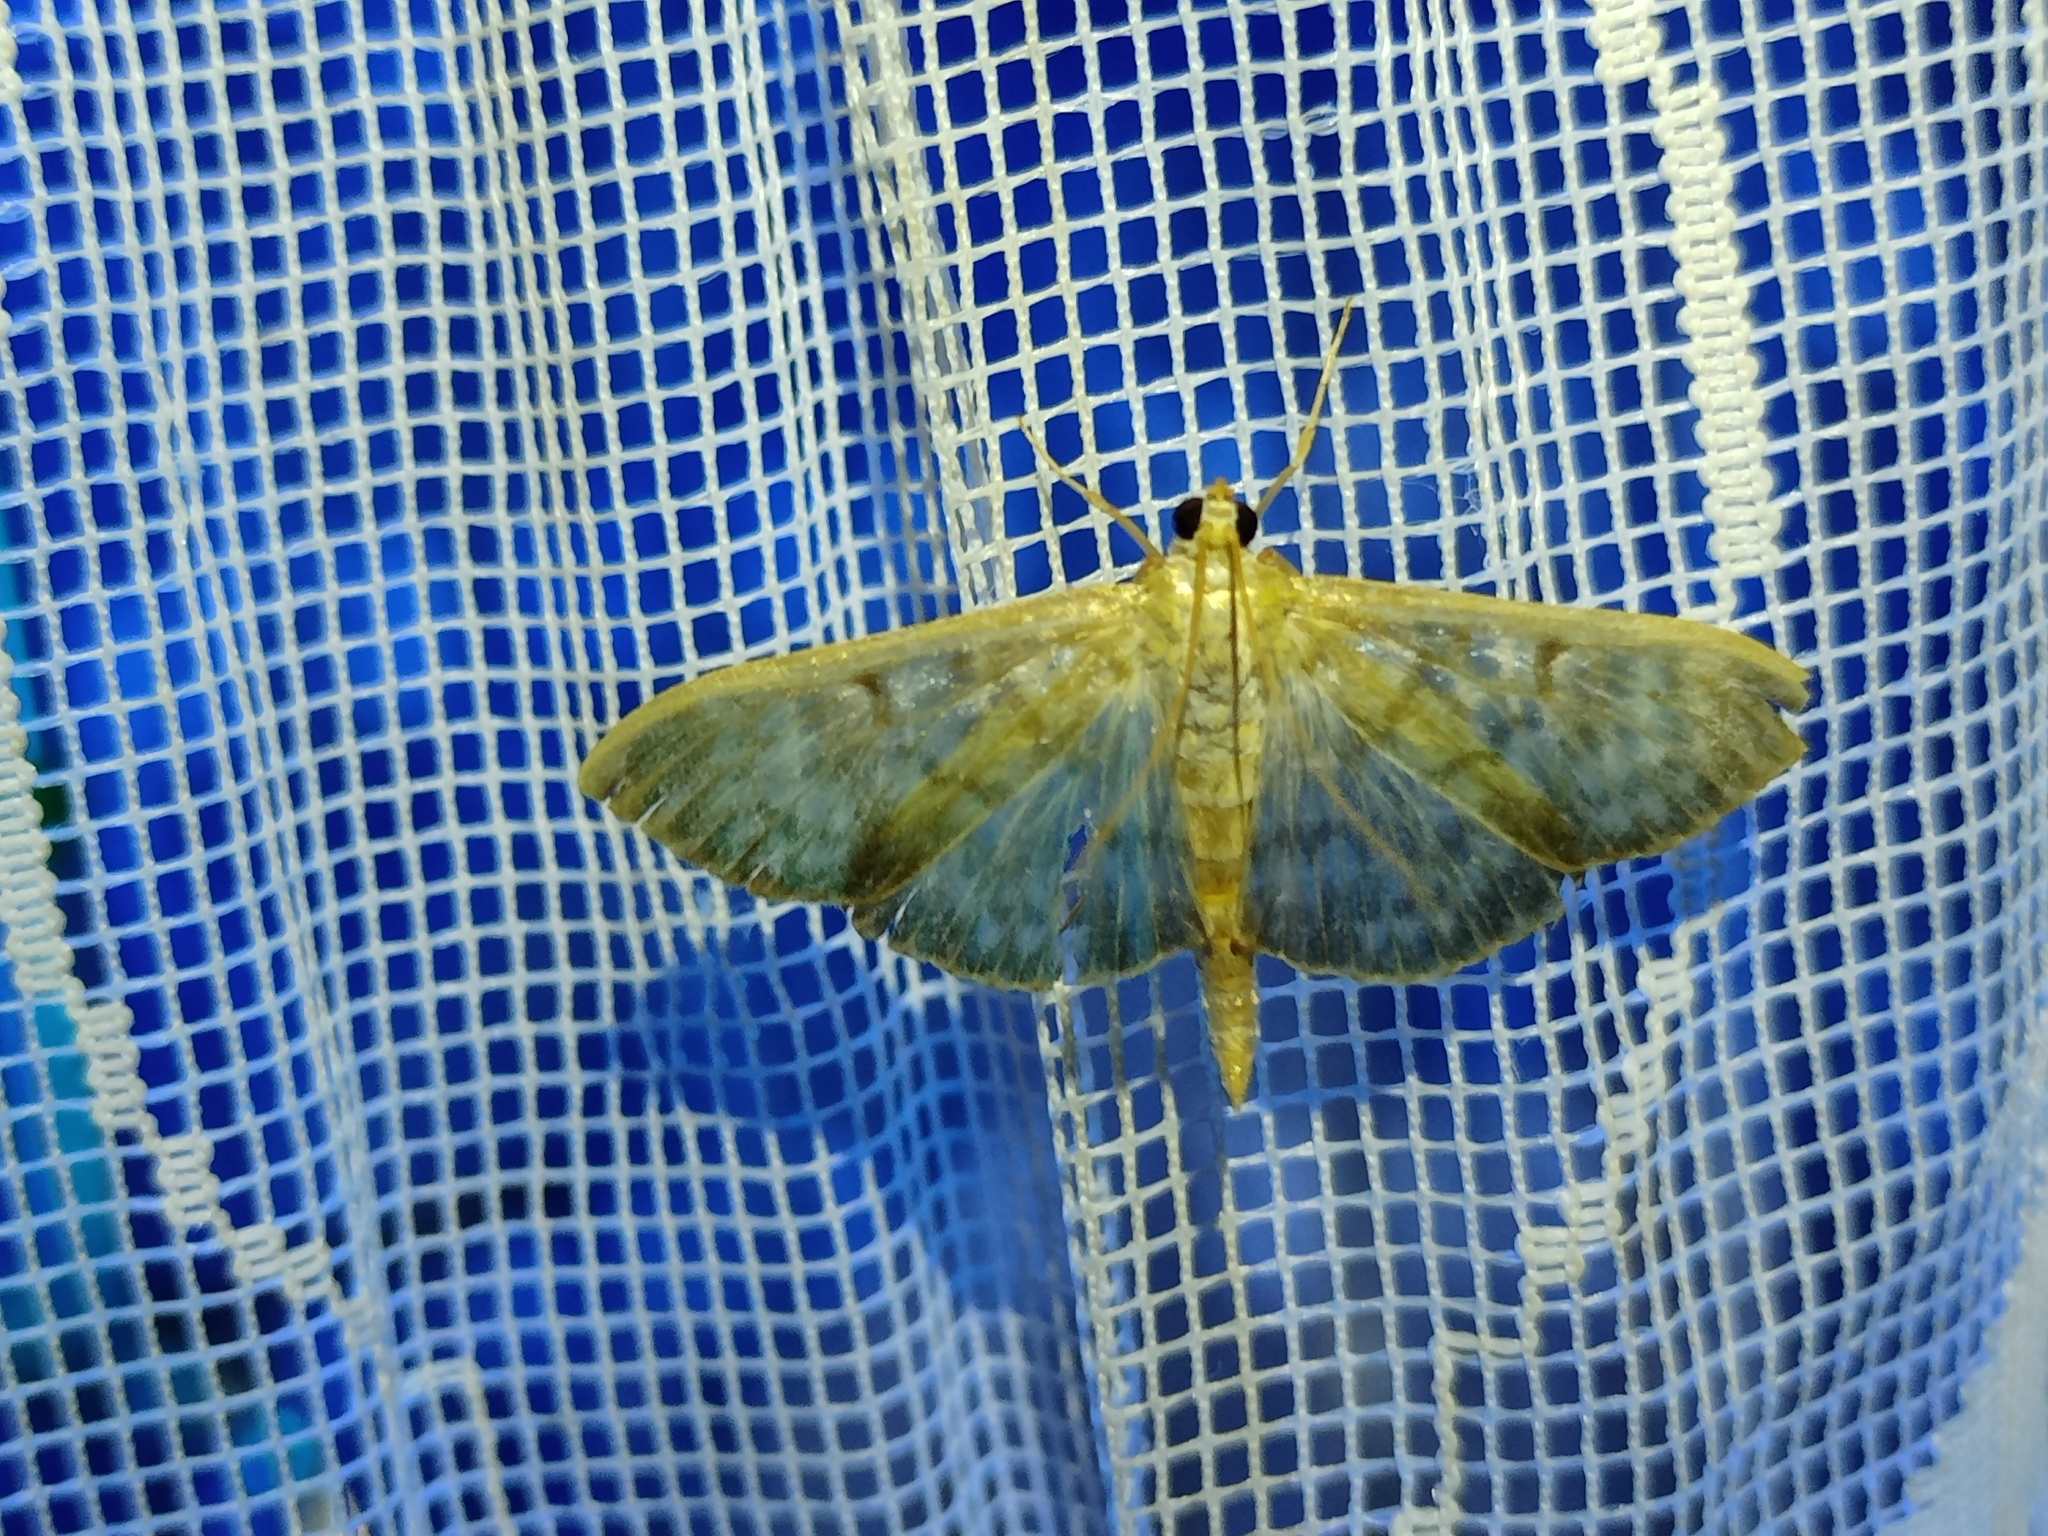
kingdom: Animalia
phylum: Arthropoda
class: Insecta
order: Lepidoptera
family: Crambidae
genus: Patania
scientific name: Patania ruralis
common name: Mother of pearl
